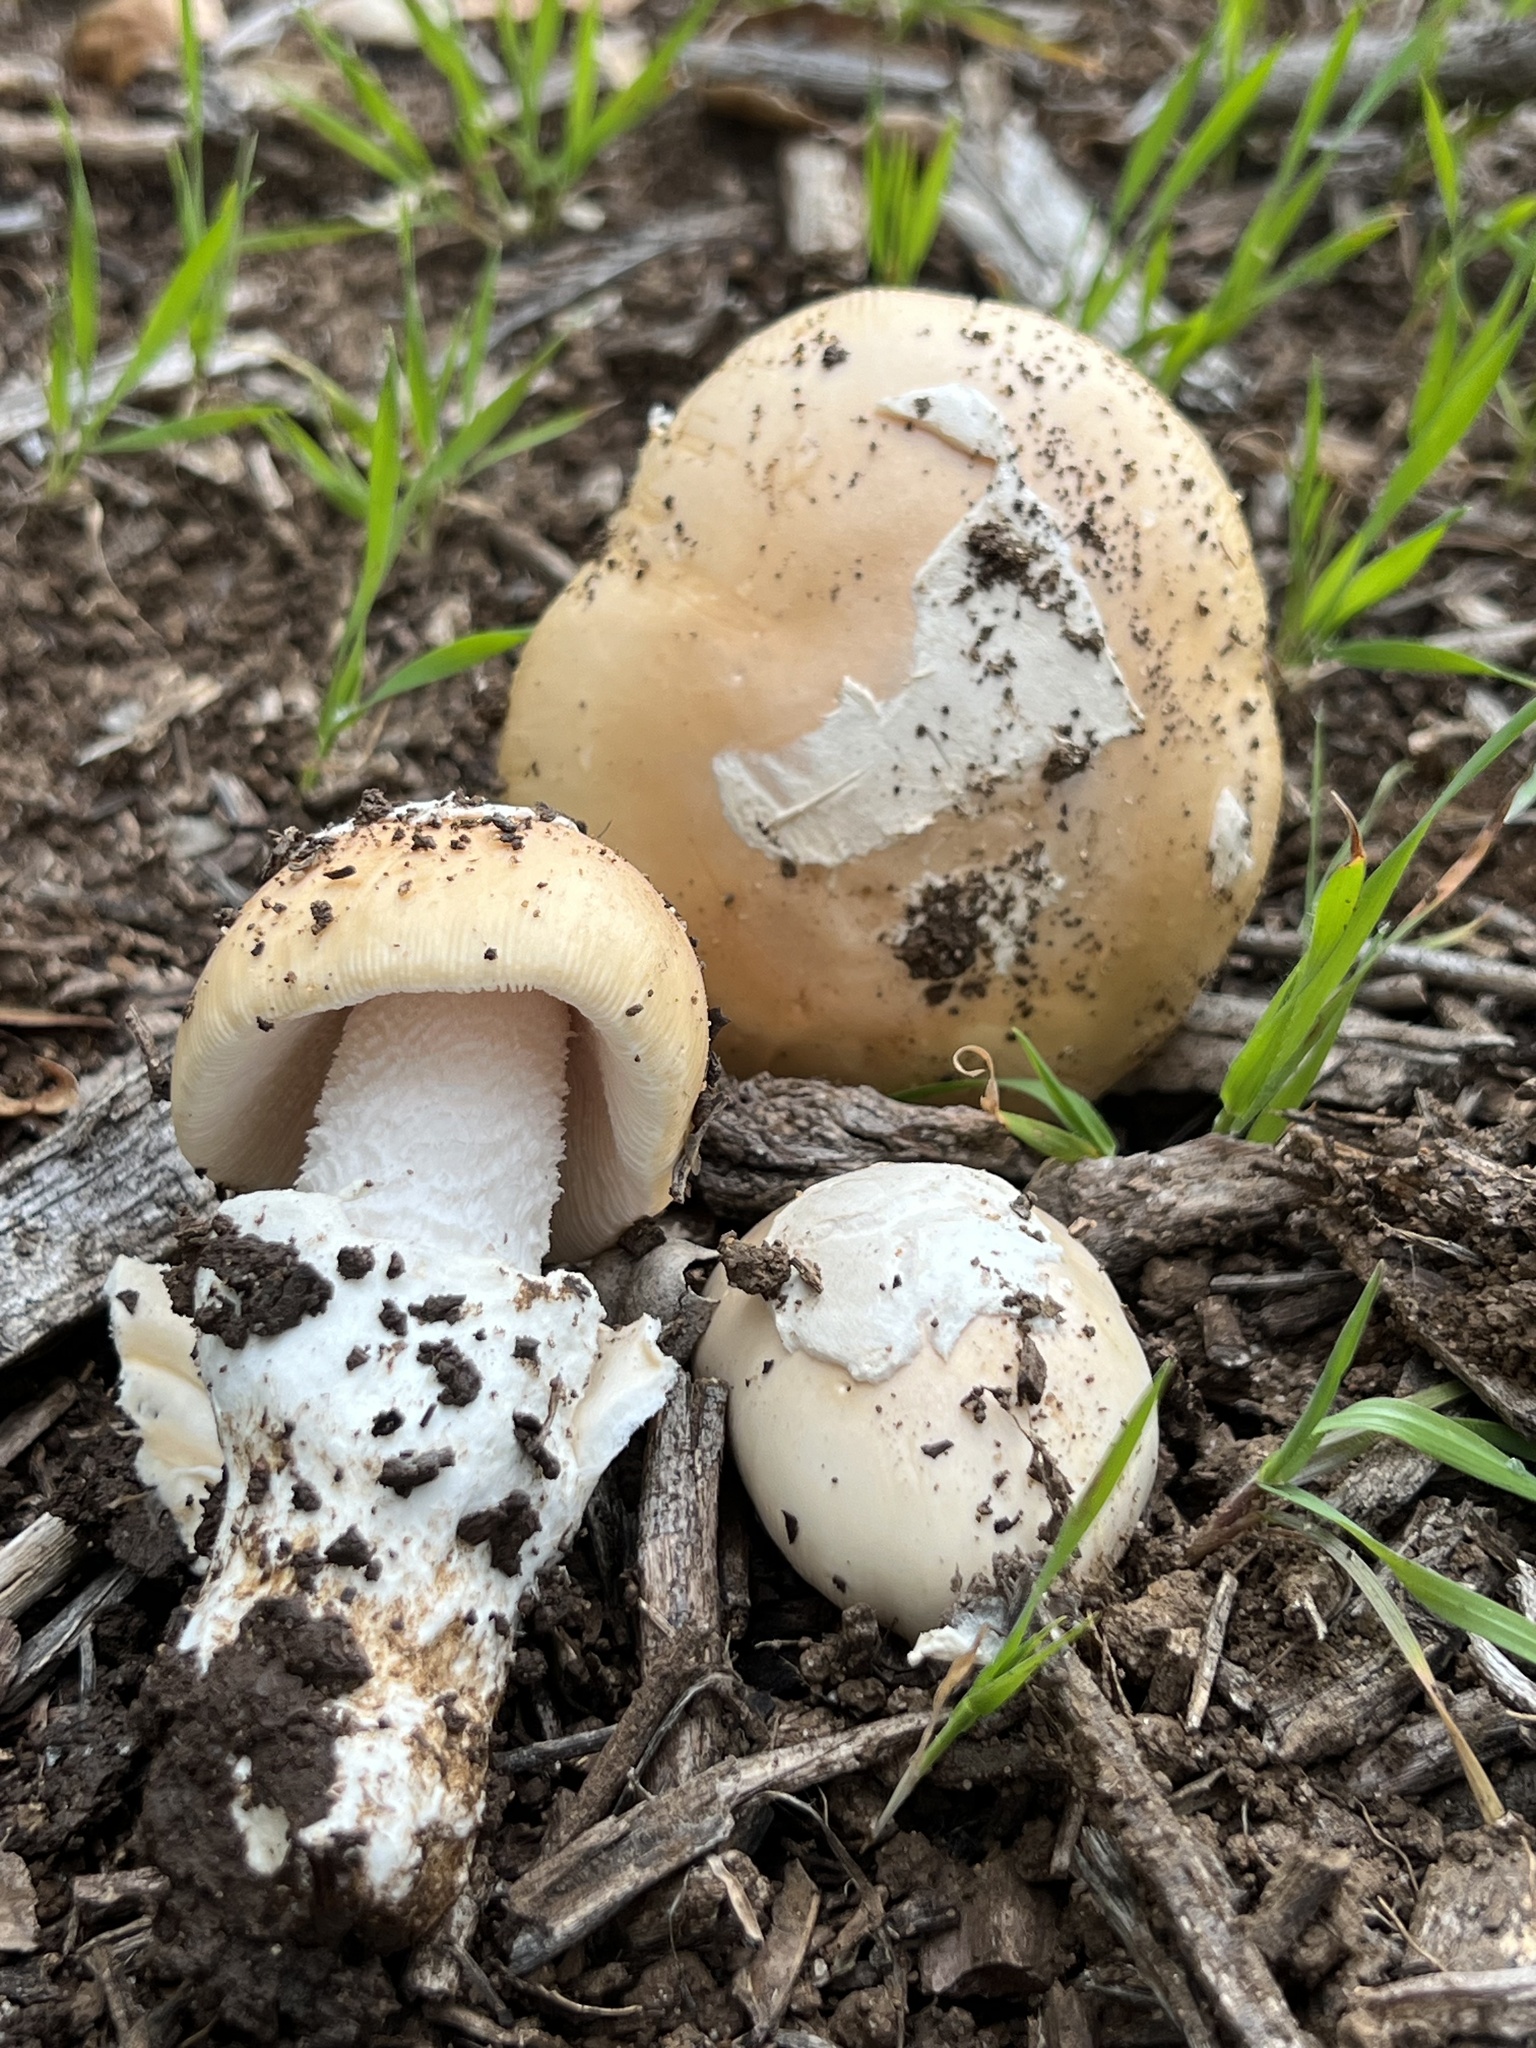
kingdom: Fungi
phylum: Basidiomycota
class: Agaricomycetes
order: Agaricales
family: Amanitaceae
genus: Amanita
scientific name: Amanita velosa
